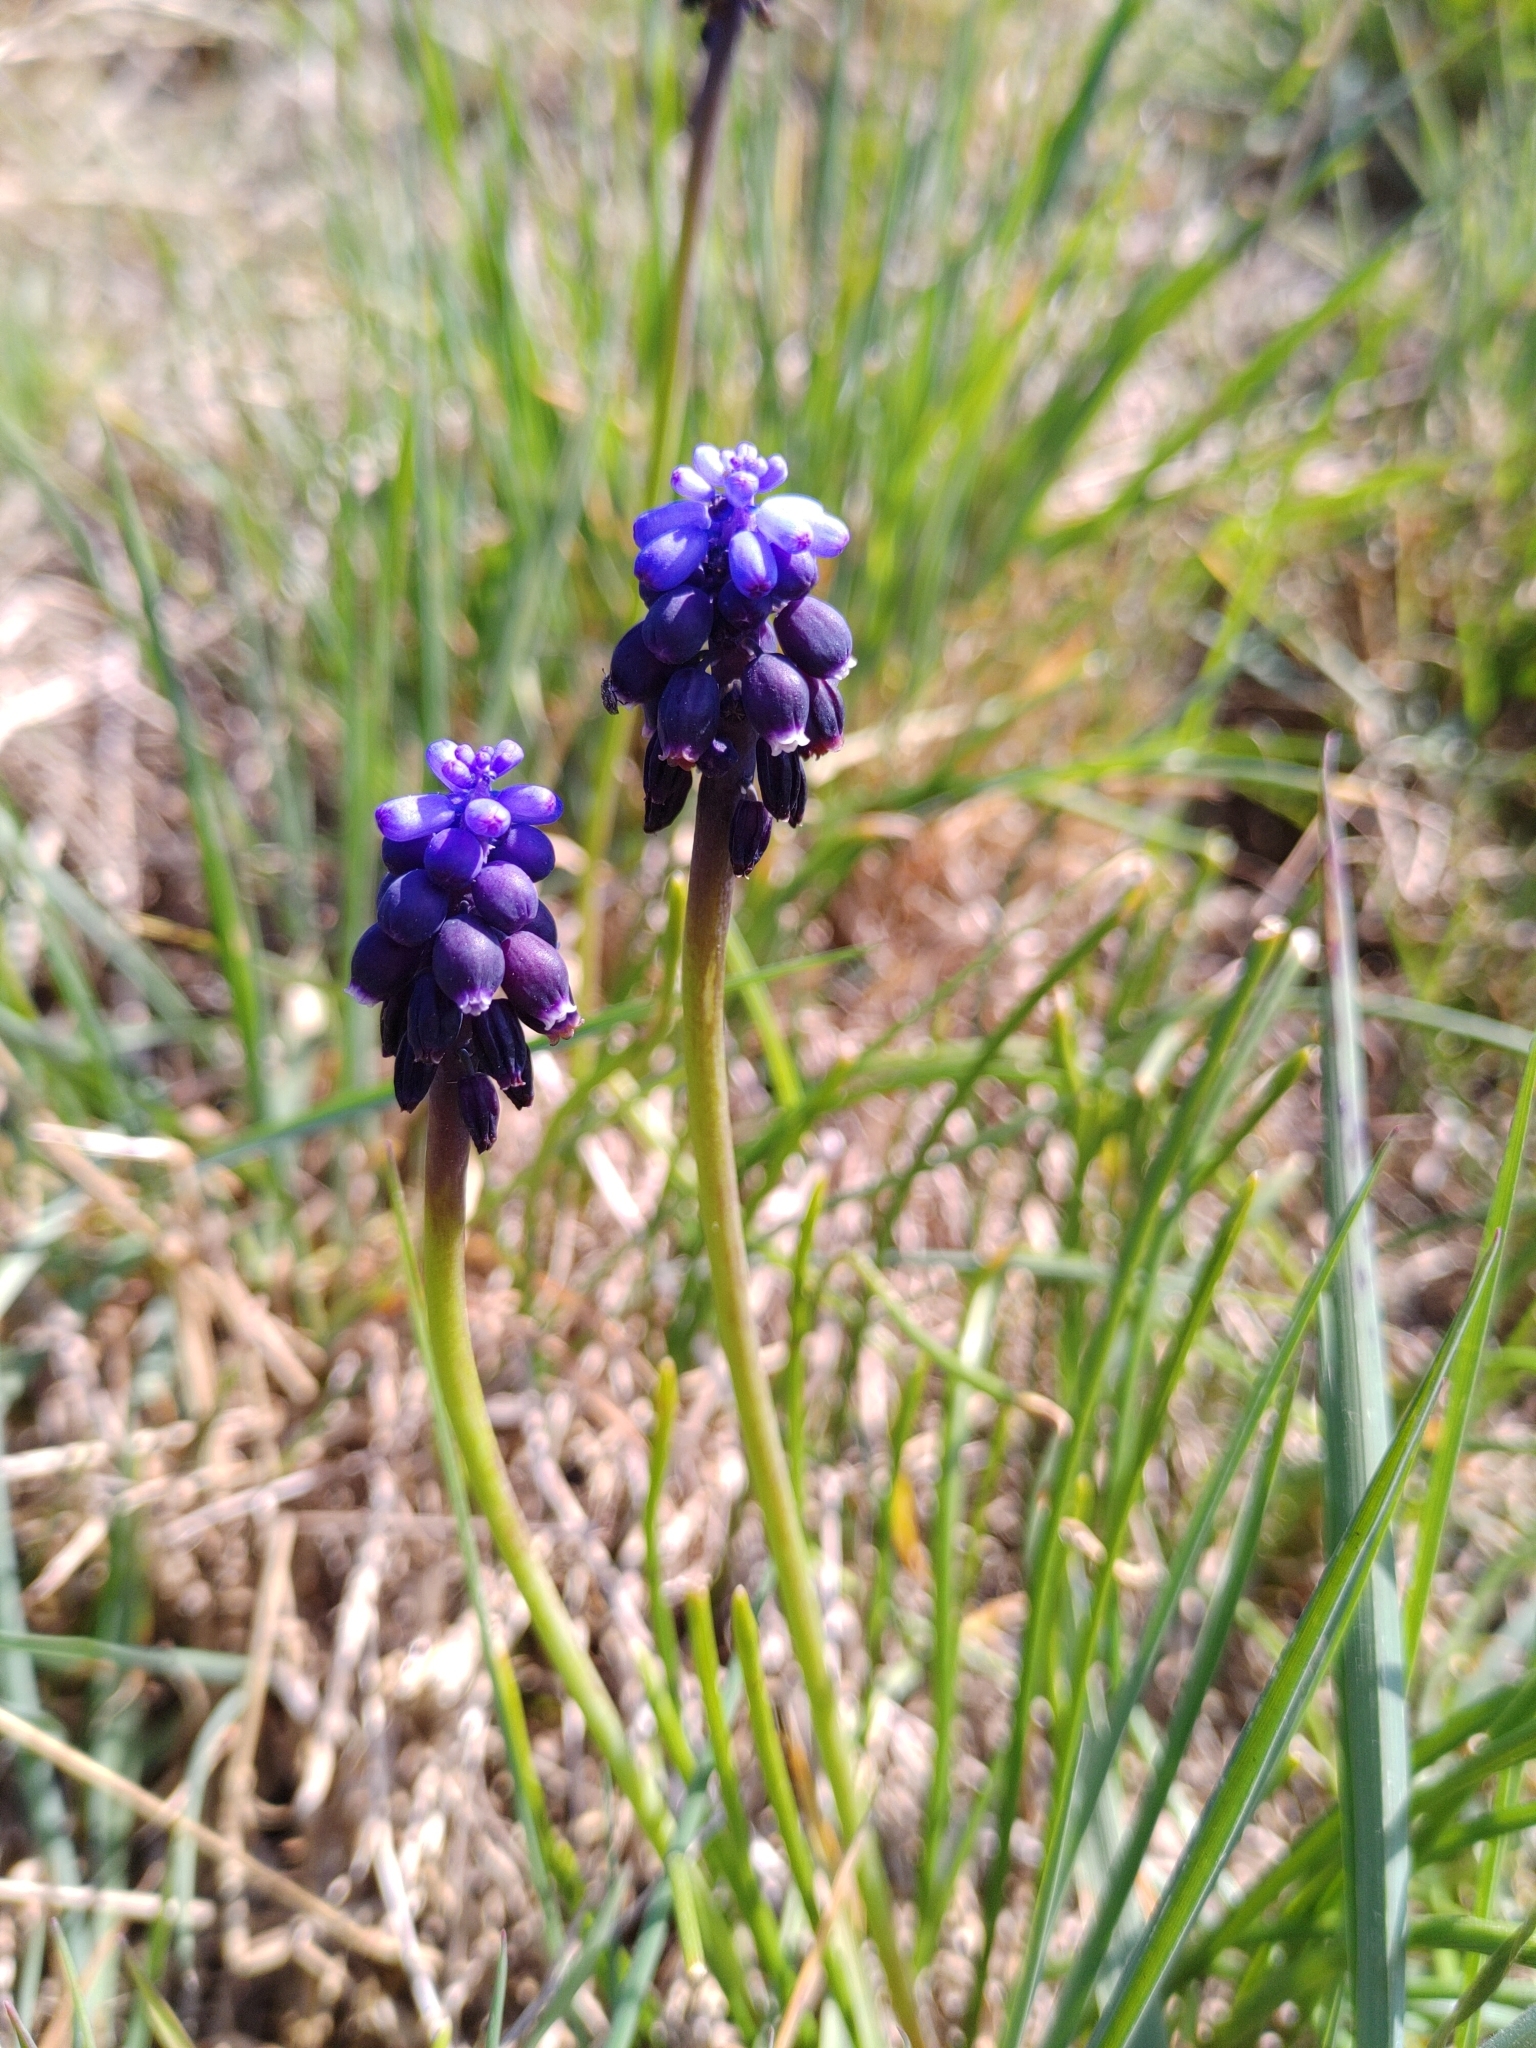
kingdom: Plantae
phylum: Tracheophyta
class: Liliopsida
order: Asparagales
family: Asparagaceae
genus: Muscari
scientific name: Muscari neglectum
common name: Grape-hyacinth
